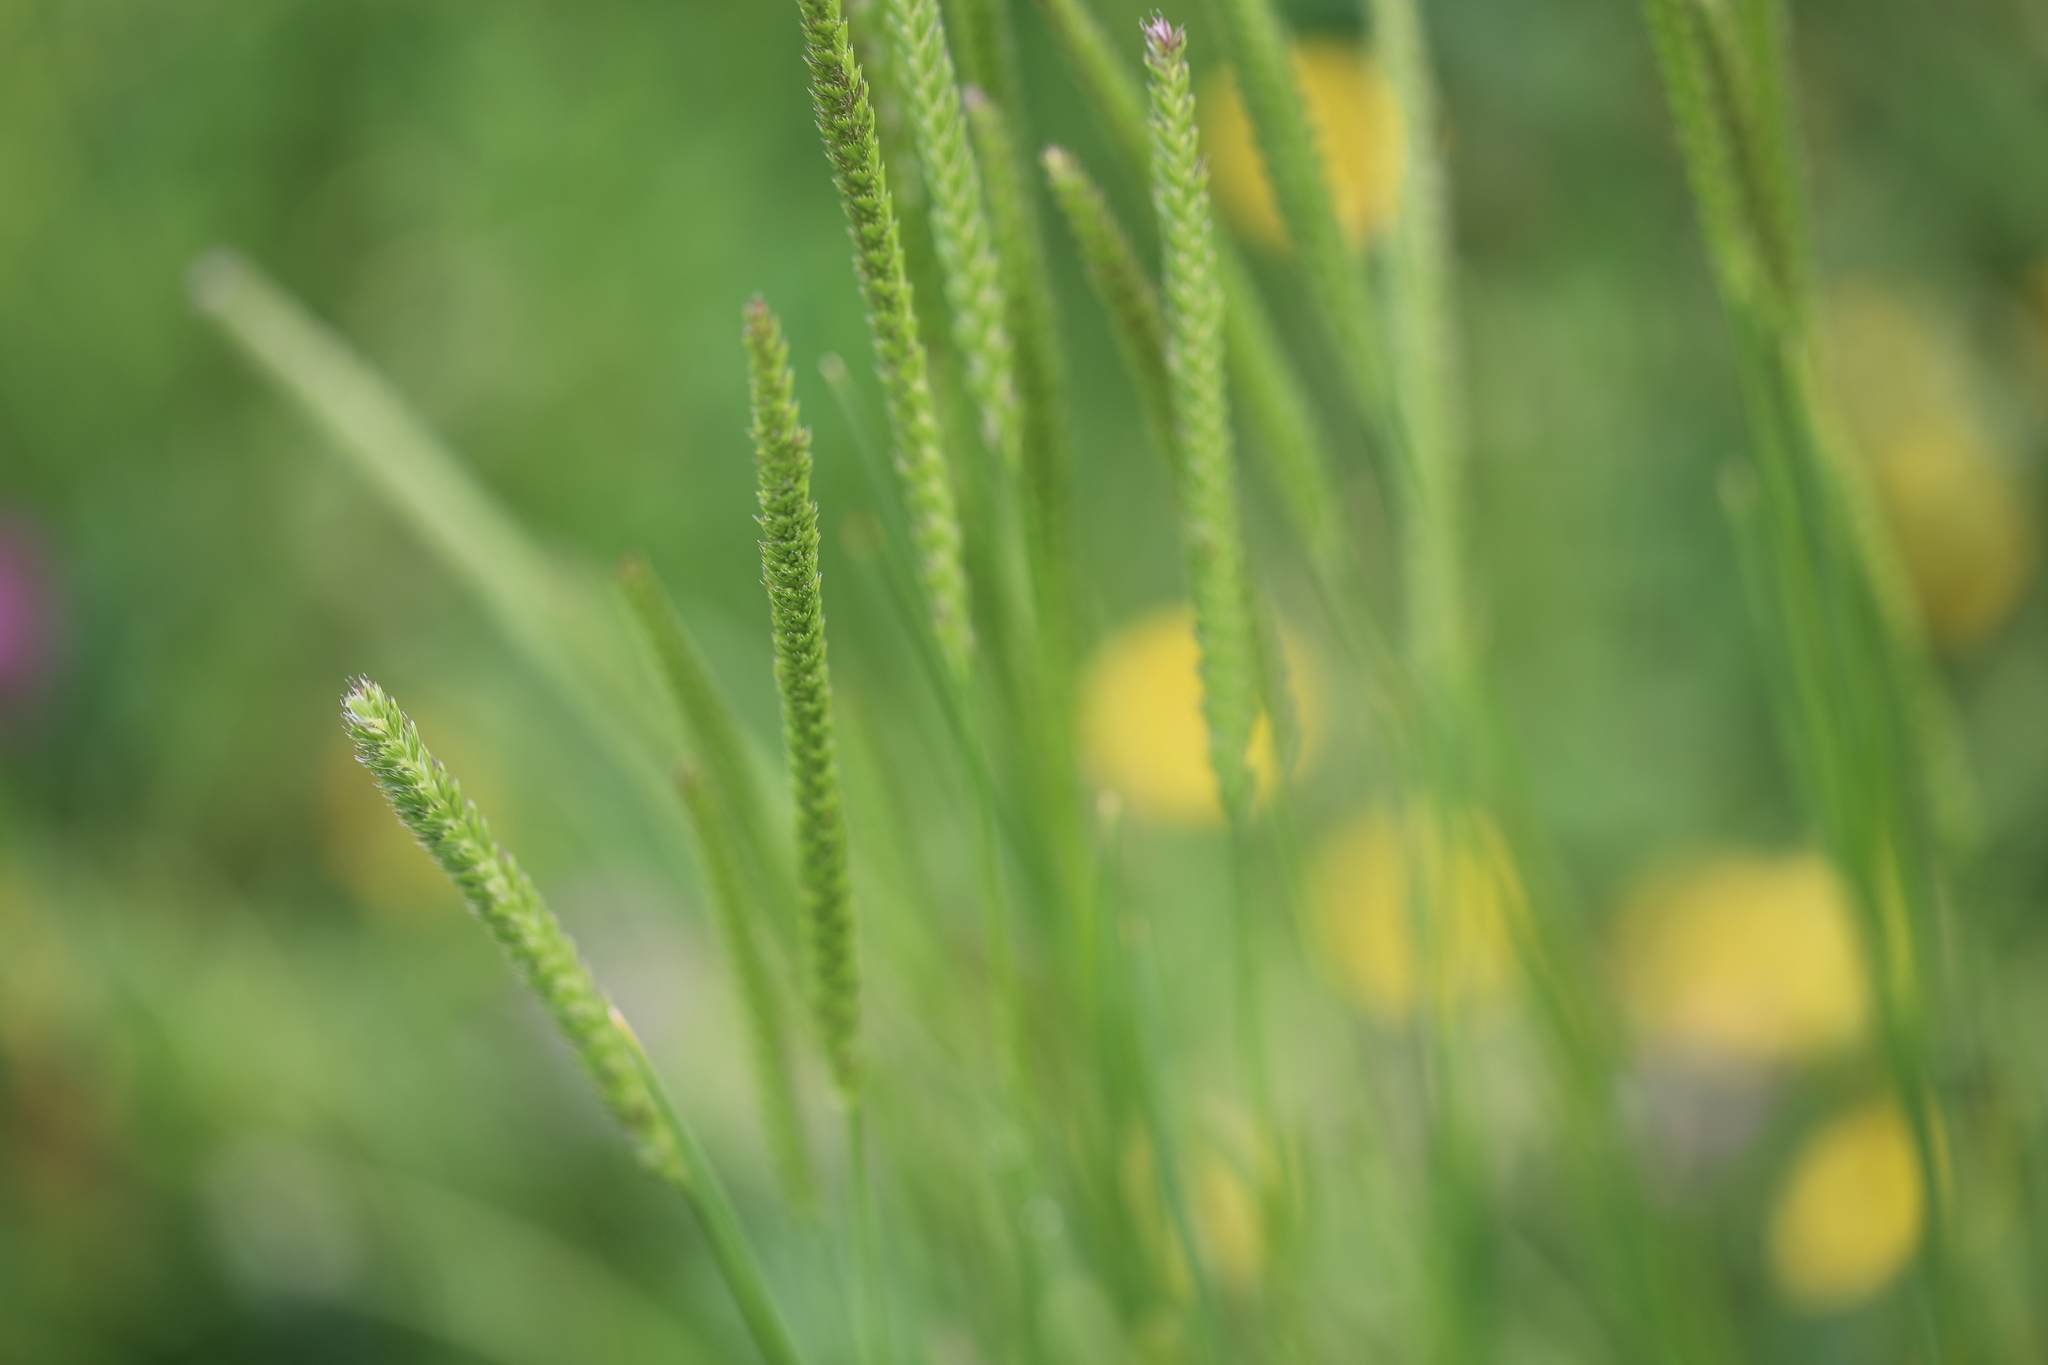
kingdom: Plantae
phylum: Tracheophyta
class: Liliopsida
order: Poales
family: Poaceae
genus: Cynosurus
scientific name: Cynosurus cristatus
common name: Crested dog's-tail
